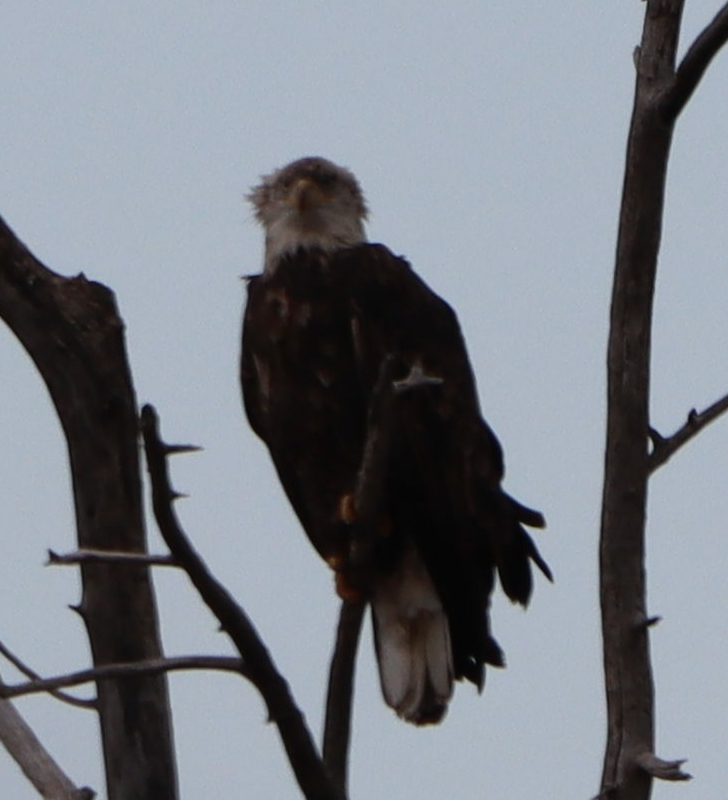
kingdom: Animalia
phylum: Chordata
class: Aves
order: Accipitriformes
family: Accipitridae
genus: Haliaeetus
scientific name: Haliaeetus leucocephalus
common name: Bald eagle
